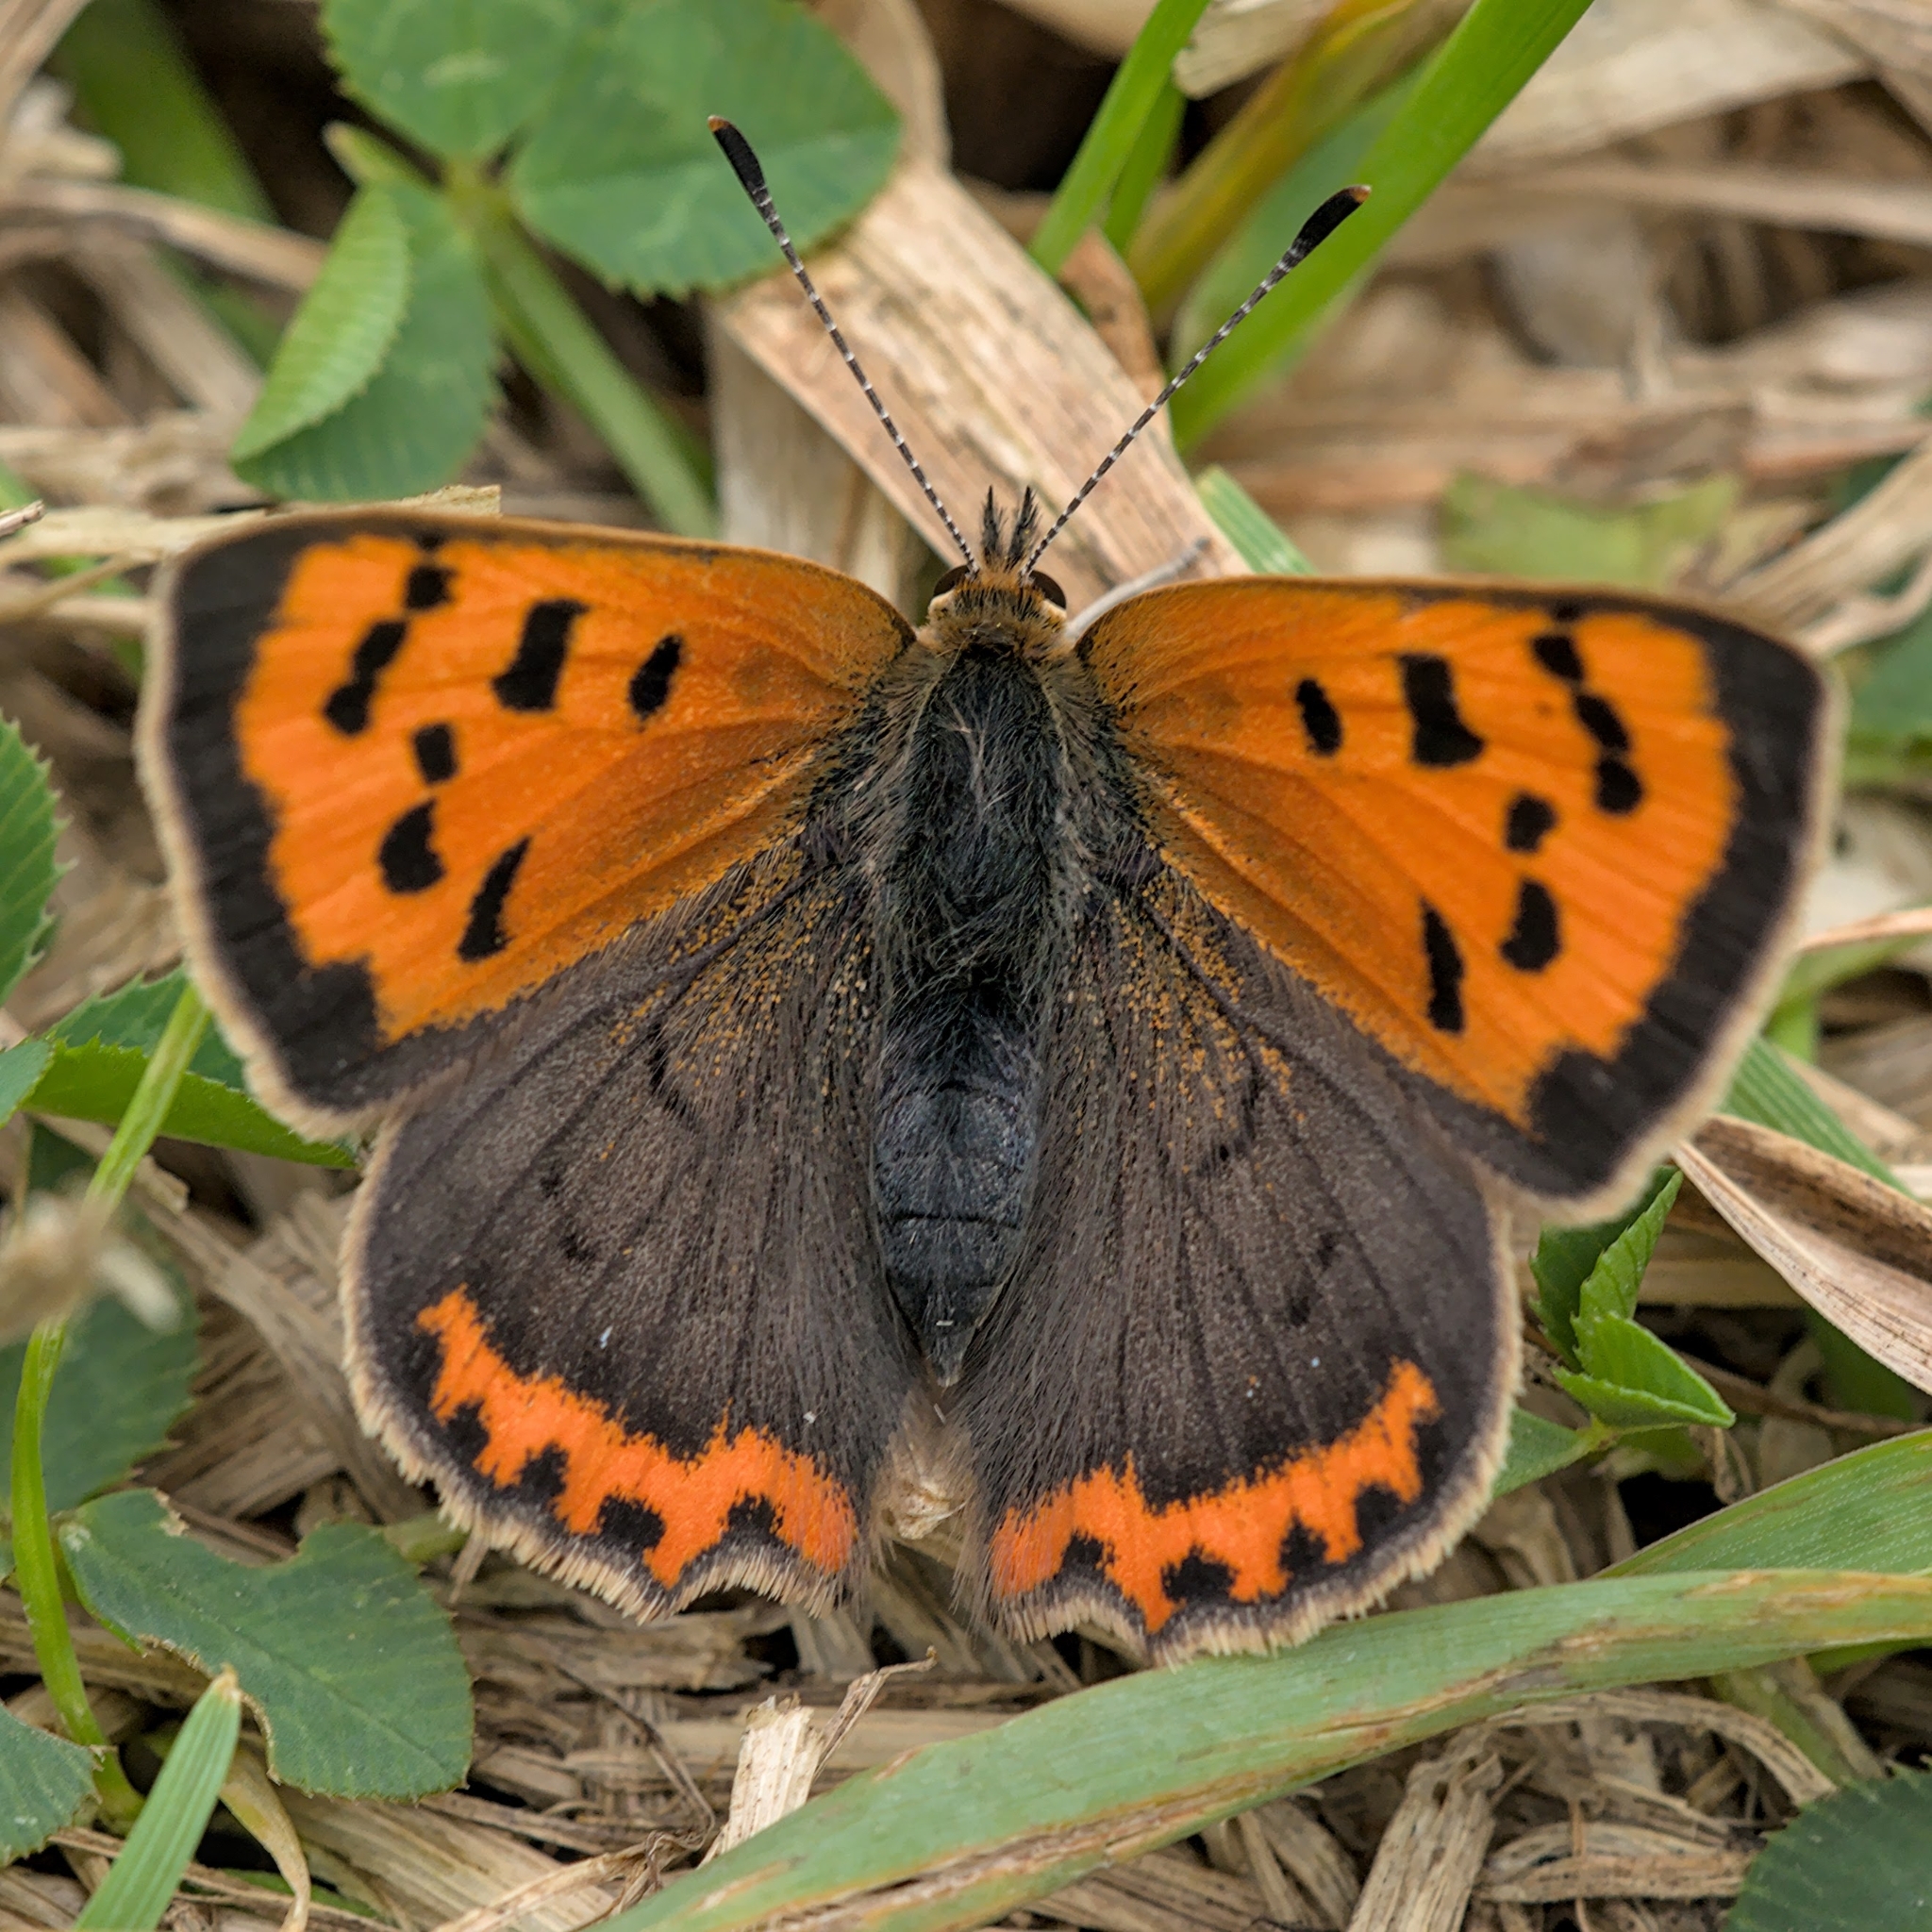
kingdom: Animalia
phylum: Arthropoda
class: Insecta
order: Lepidoptera
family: Lycaenidae
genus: Lycaena
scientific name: Lycaena phlaeas
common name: Small copper
